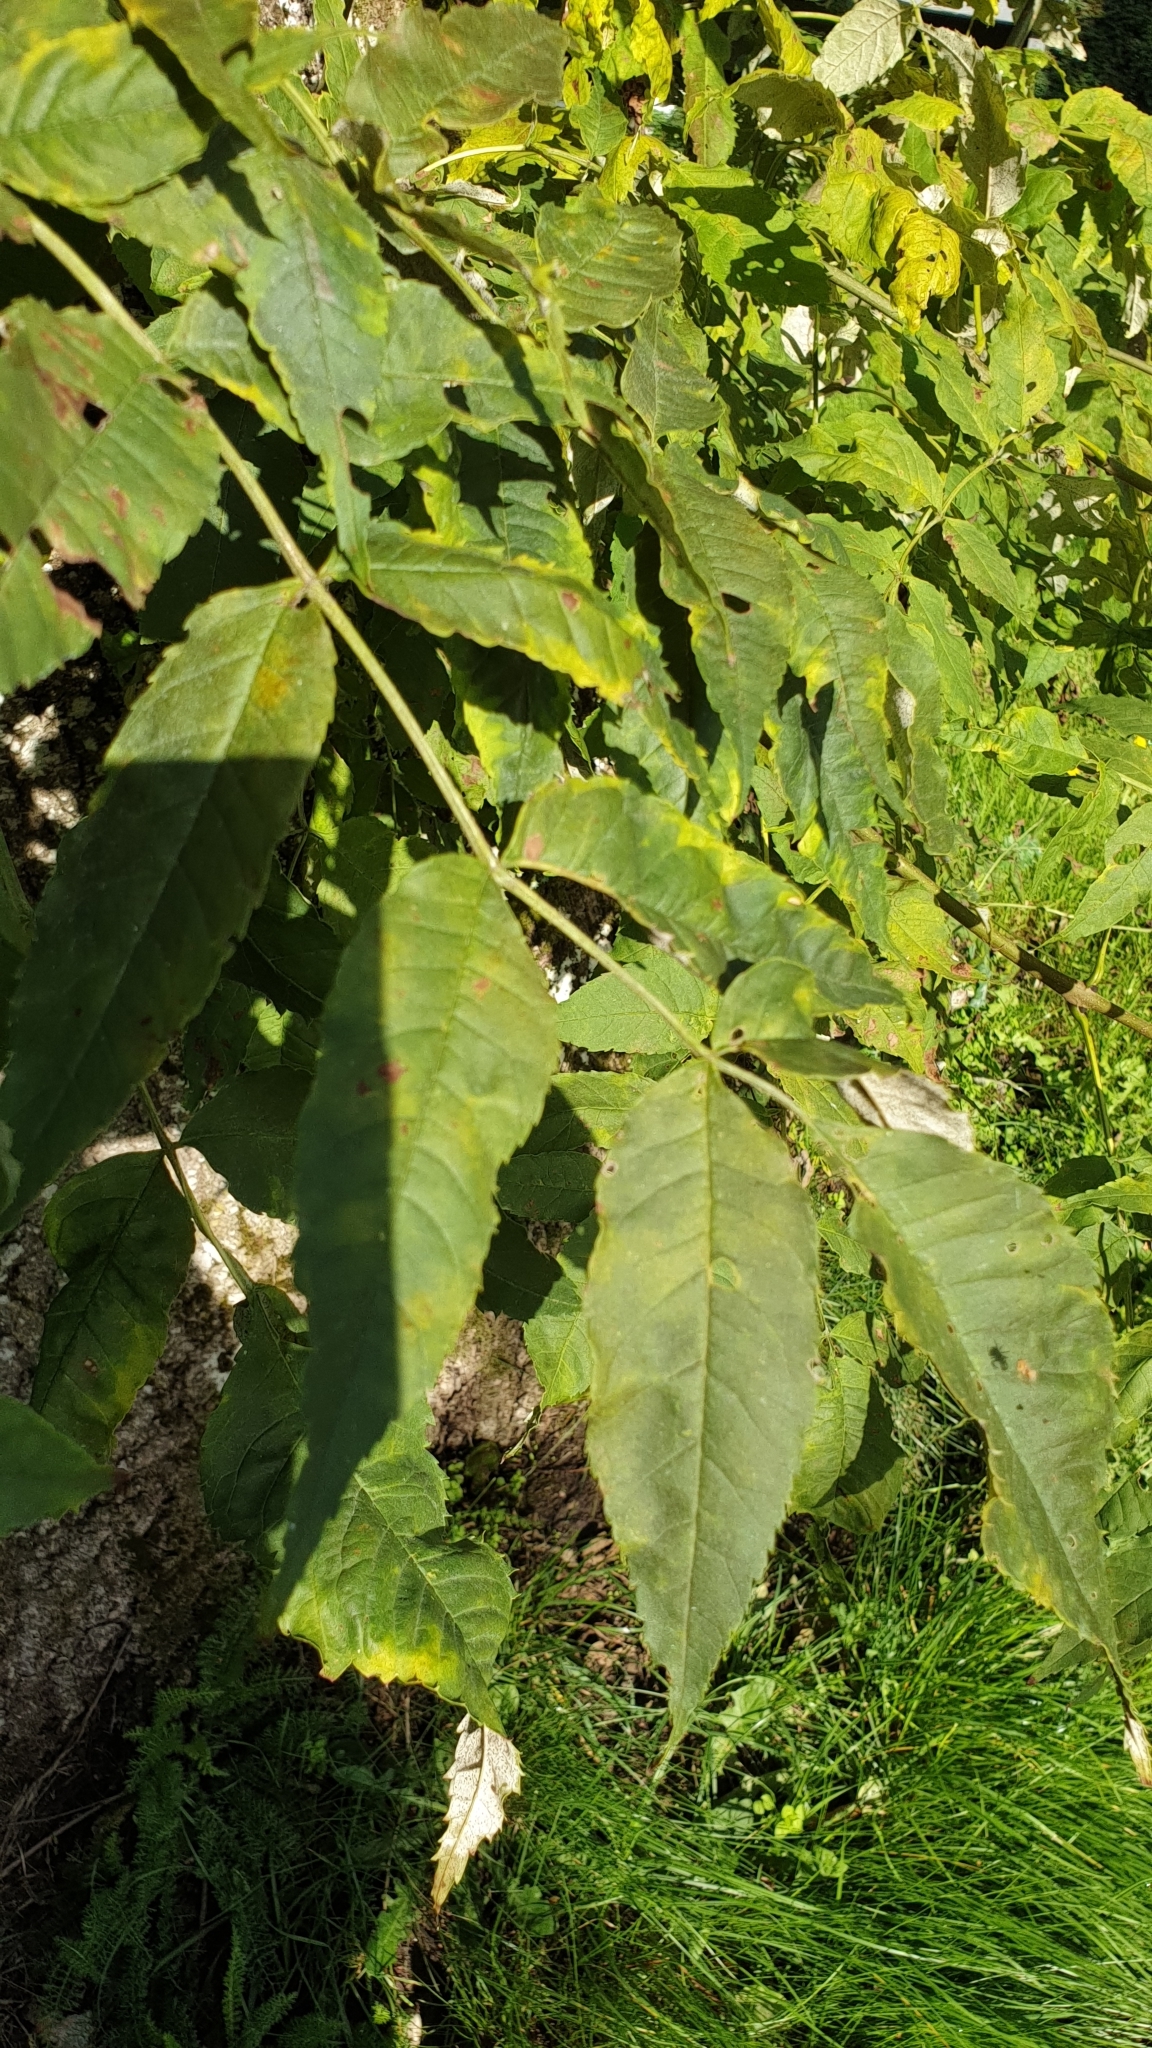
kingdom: Plantae
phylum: Tracheophyta
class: Magnoliopsida
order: Lamiales
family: Oleaceae
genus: Fraxinus
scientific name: Fraxinus excelsior
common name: European ash
